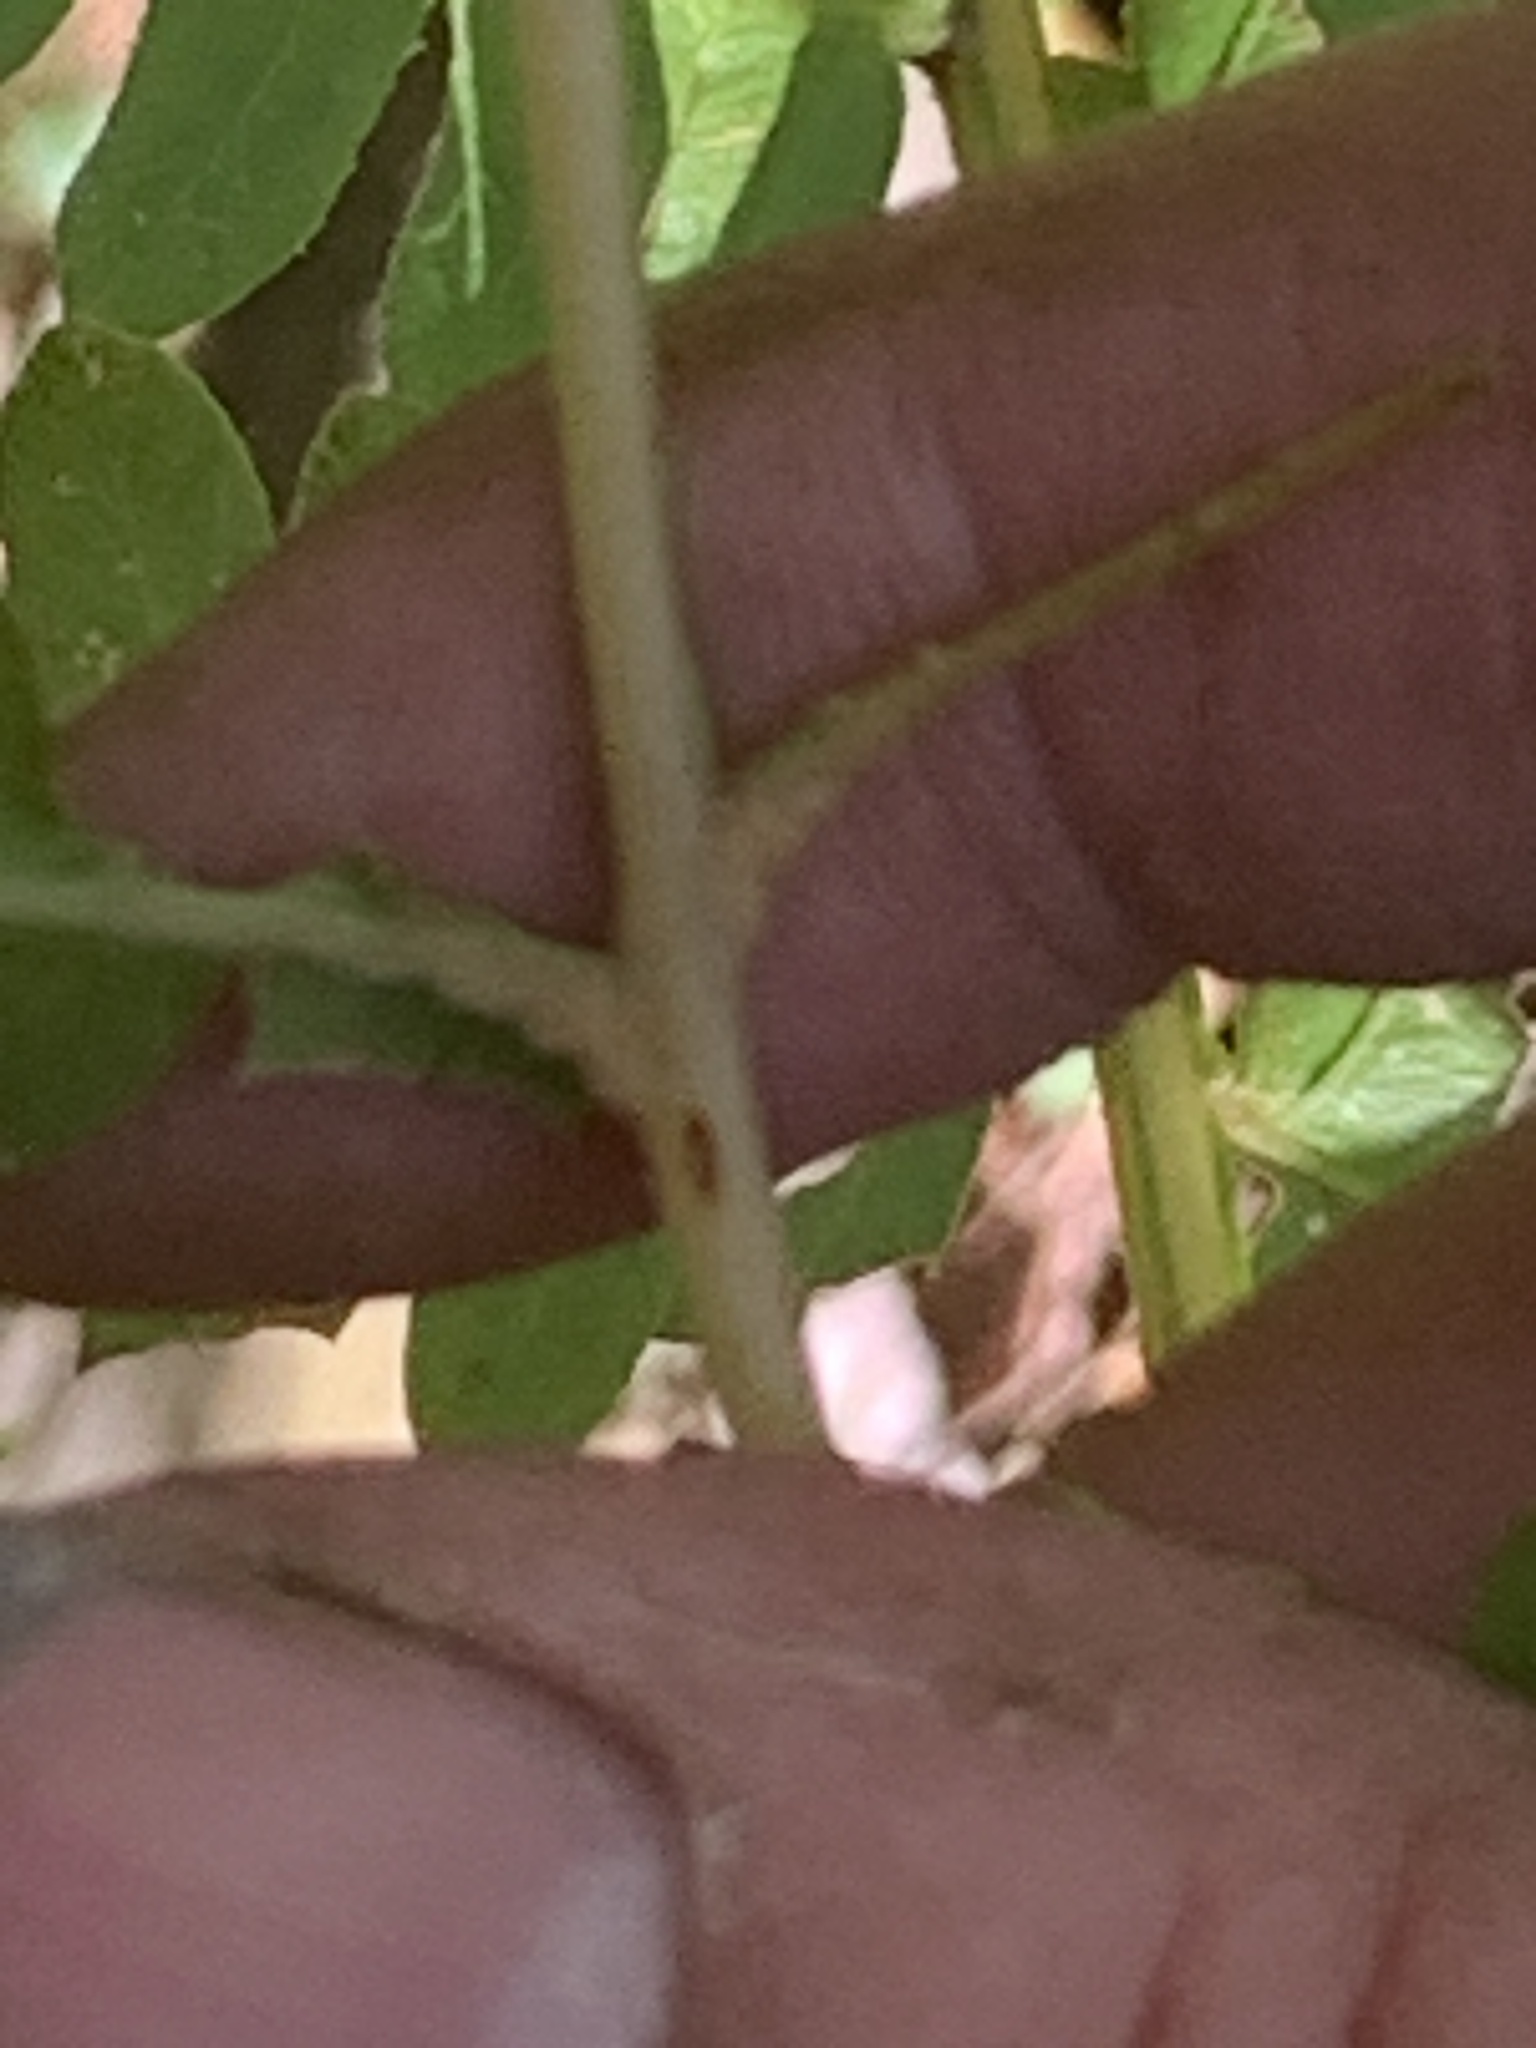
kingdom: Plantae
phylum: Tracheophyta
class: Polypodiopsida
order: Osmundales
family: Osmundaceae
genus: Osmundastrum
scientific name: Osmundastrum cinnamomeum
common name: Cinnamon fern
